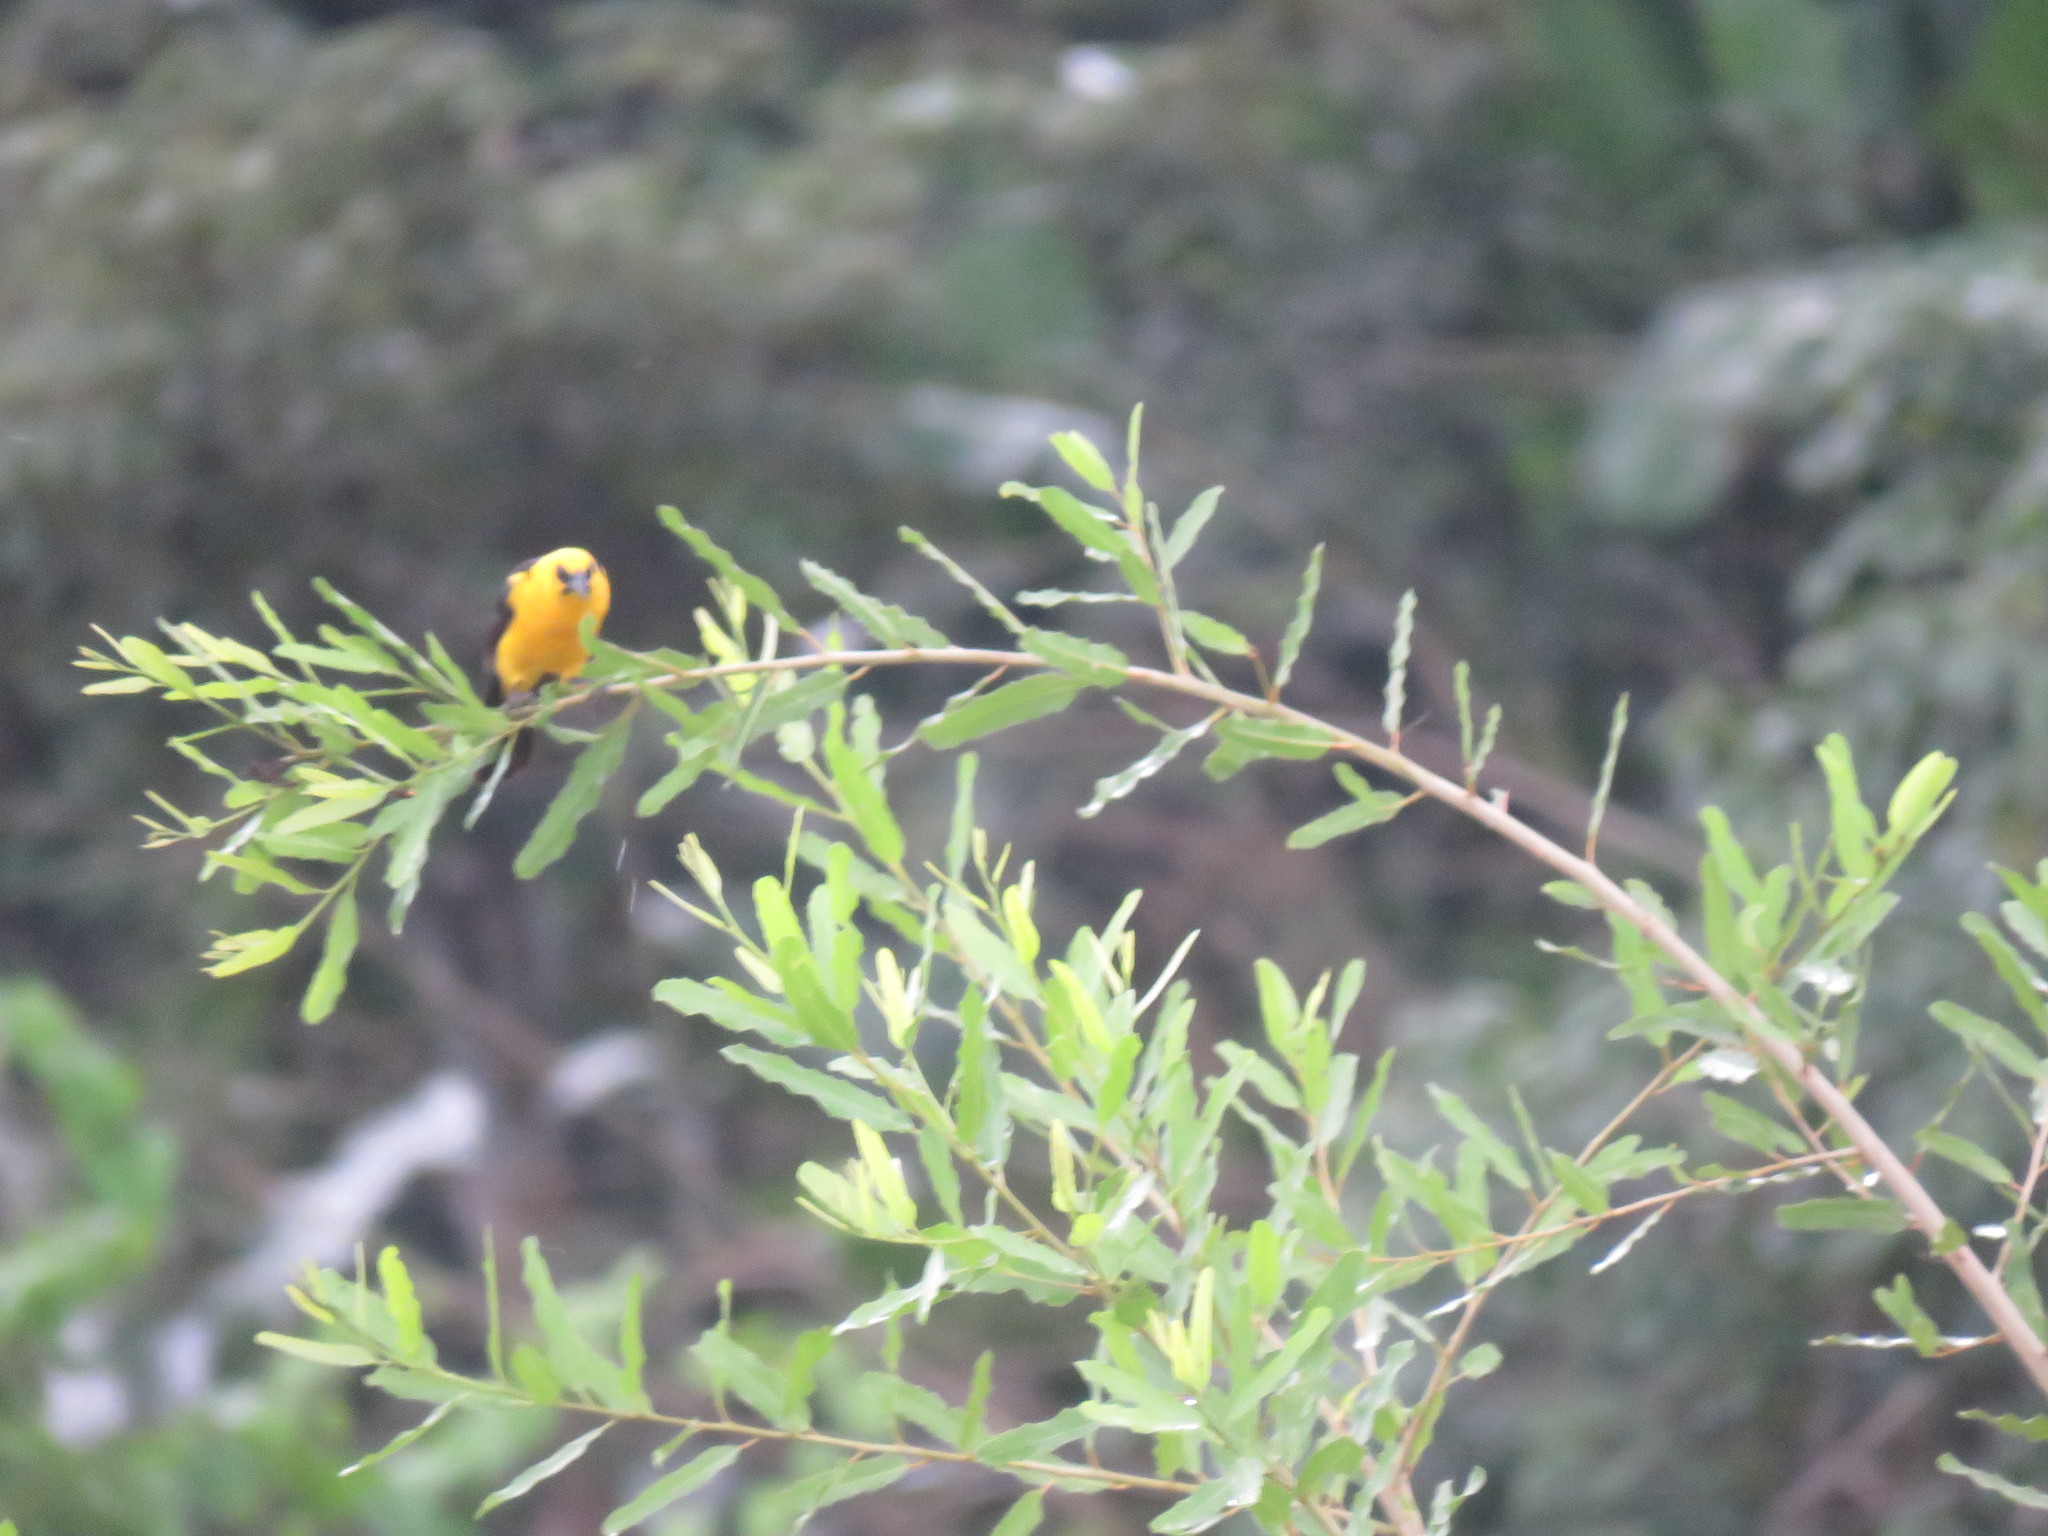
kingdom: Animalia
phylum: Chordata
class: Aves
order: Passeriformes
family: Icteridae
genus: Gymnomystax
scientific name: Gymnomystax mexicanus
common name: Oriole blackbird
